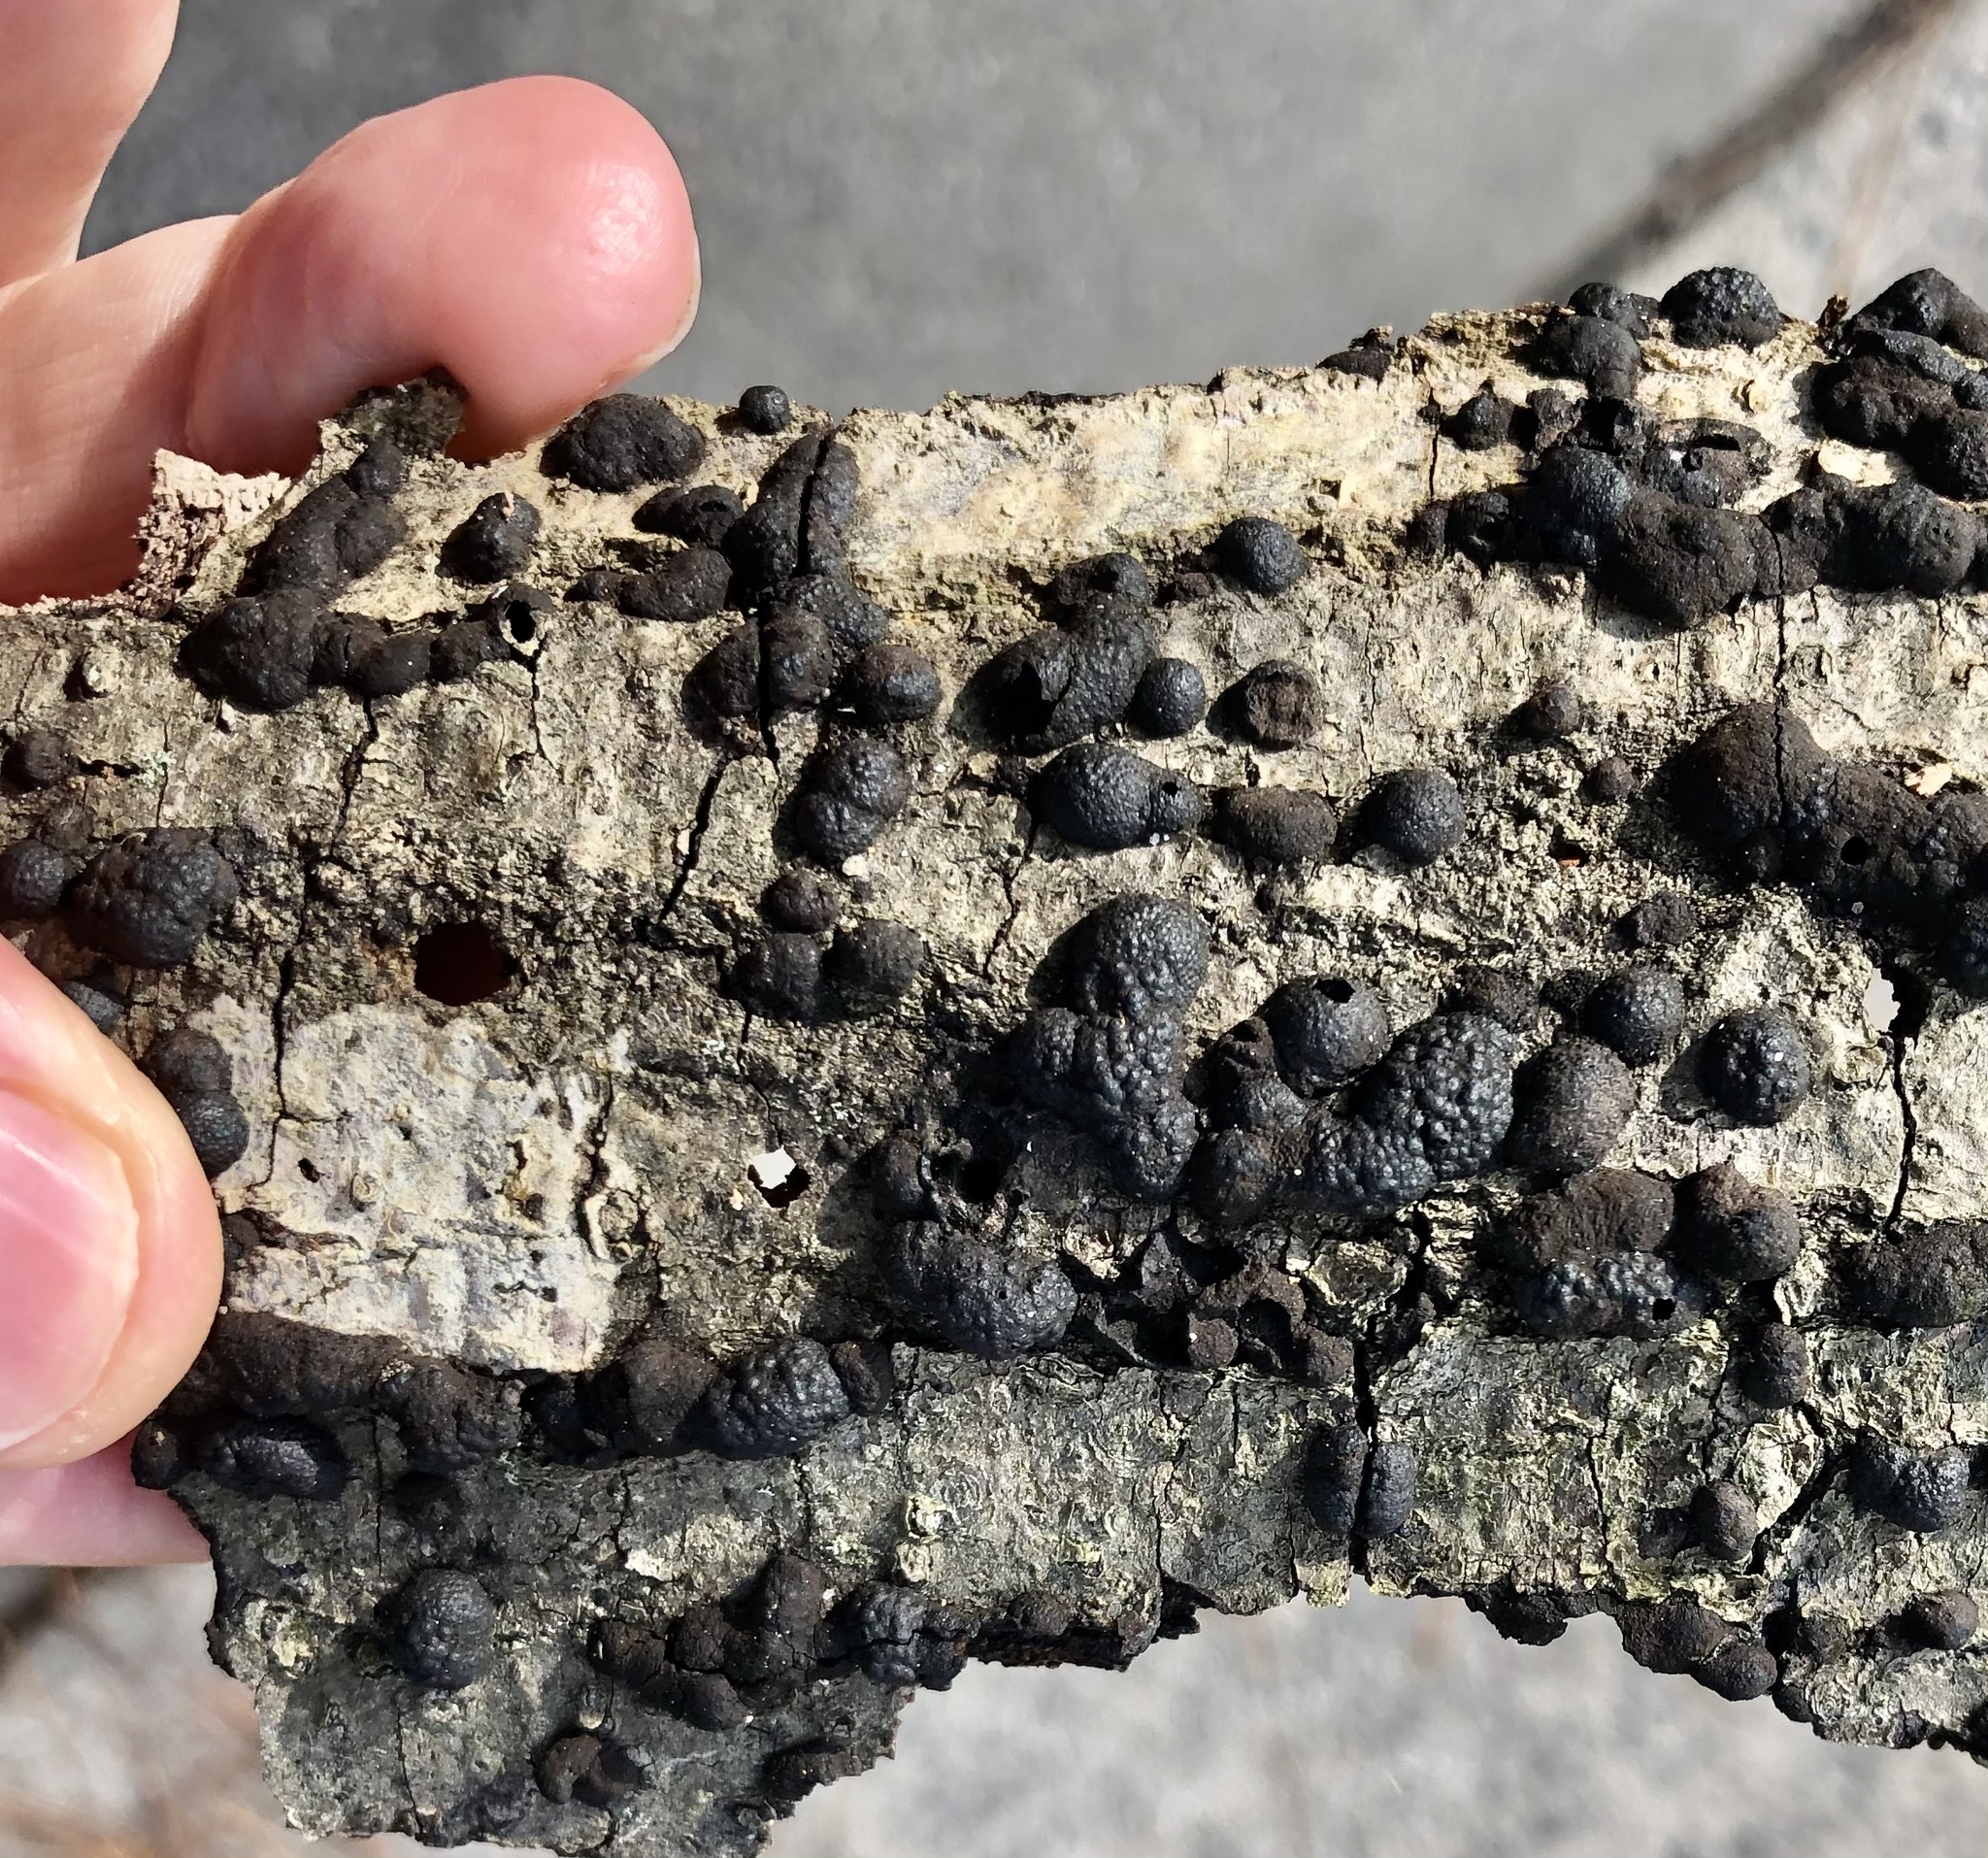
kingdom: Fungi
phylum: Ascomycota
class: Sordariomycetes
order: Xylariales
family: Hypoxylaceae
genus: Annulohypoxylon
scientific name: Annulohypoxylon thouarsianum
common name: Cramp balls
